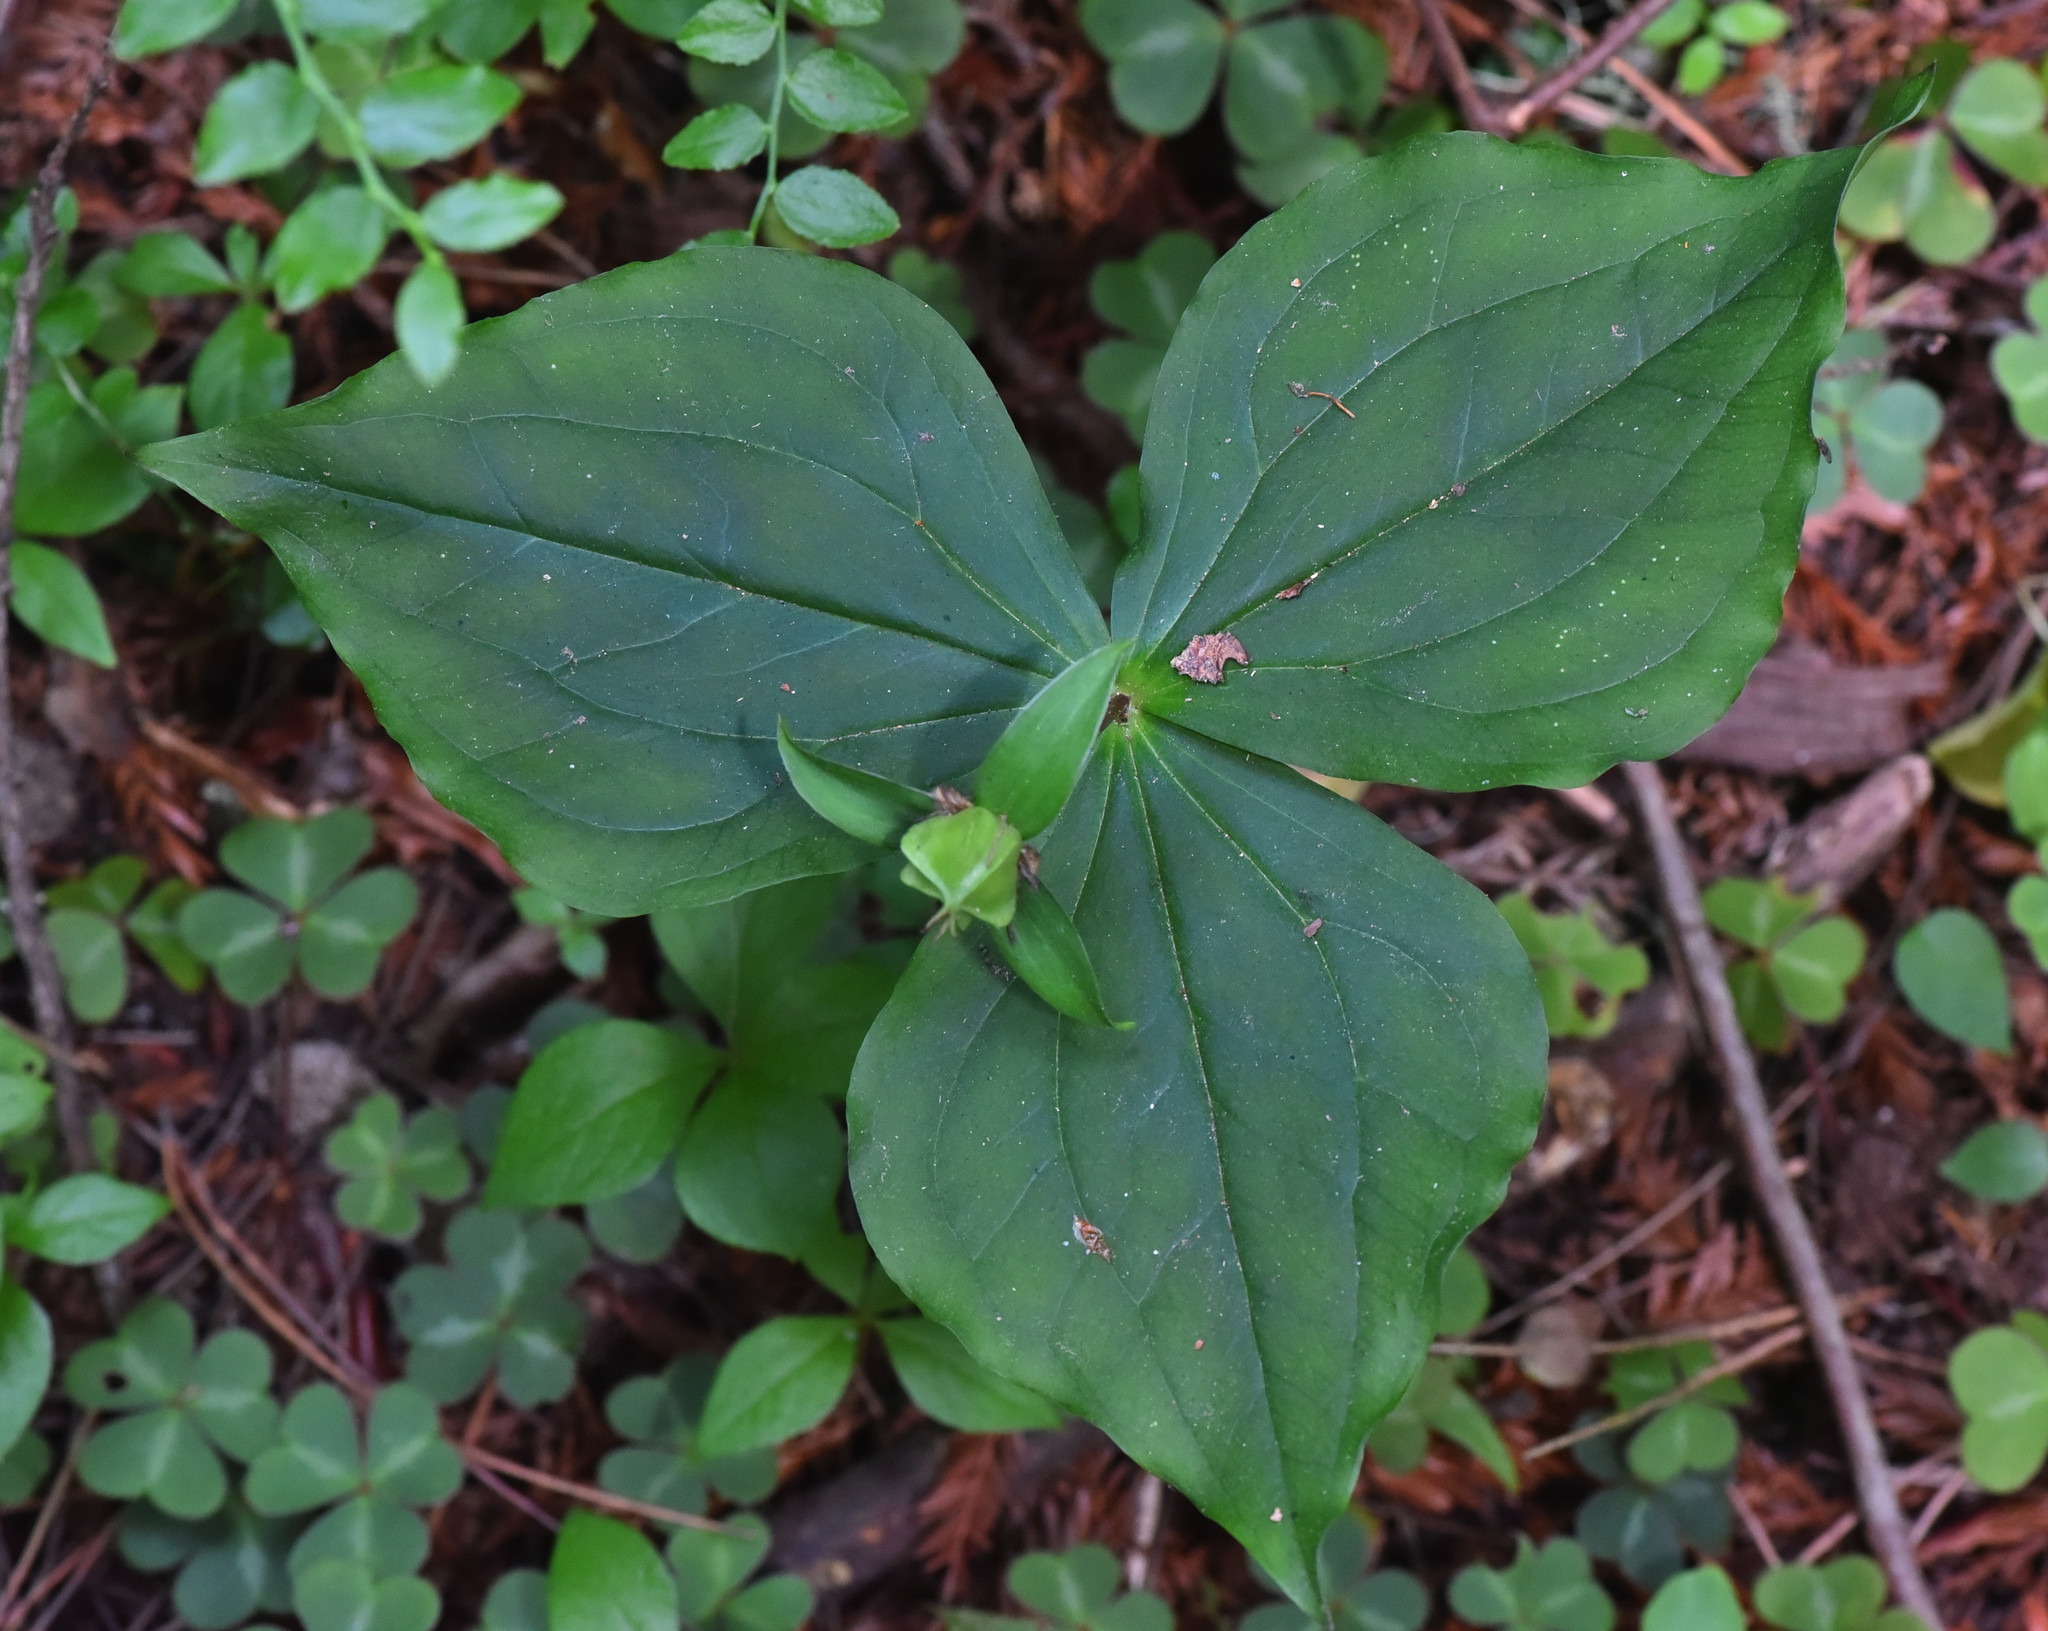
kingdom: Plantae
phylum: Tracheophyta
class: Liliopsida
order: Liliales
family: Melanthiaceae
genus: Trillium
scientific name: Trillium ovatum
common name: Pacific trillium
